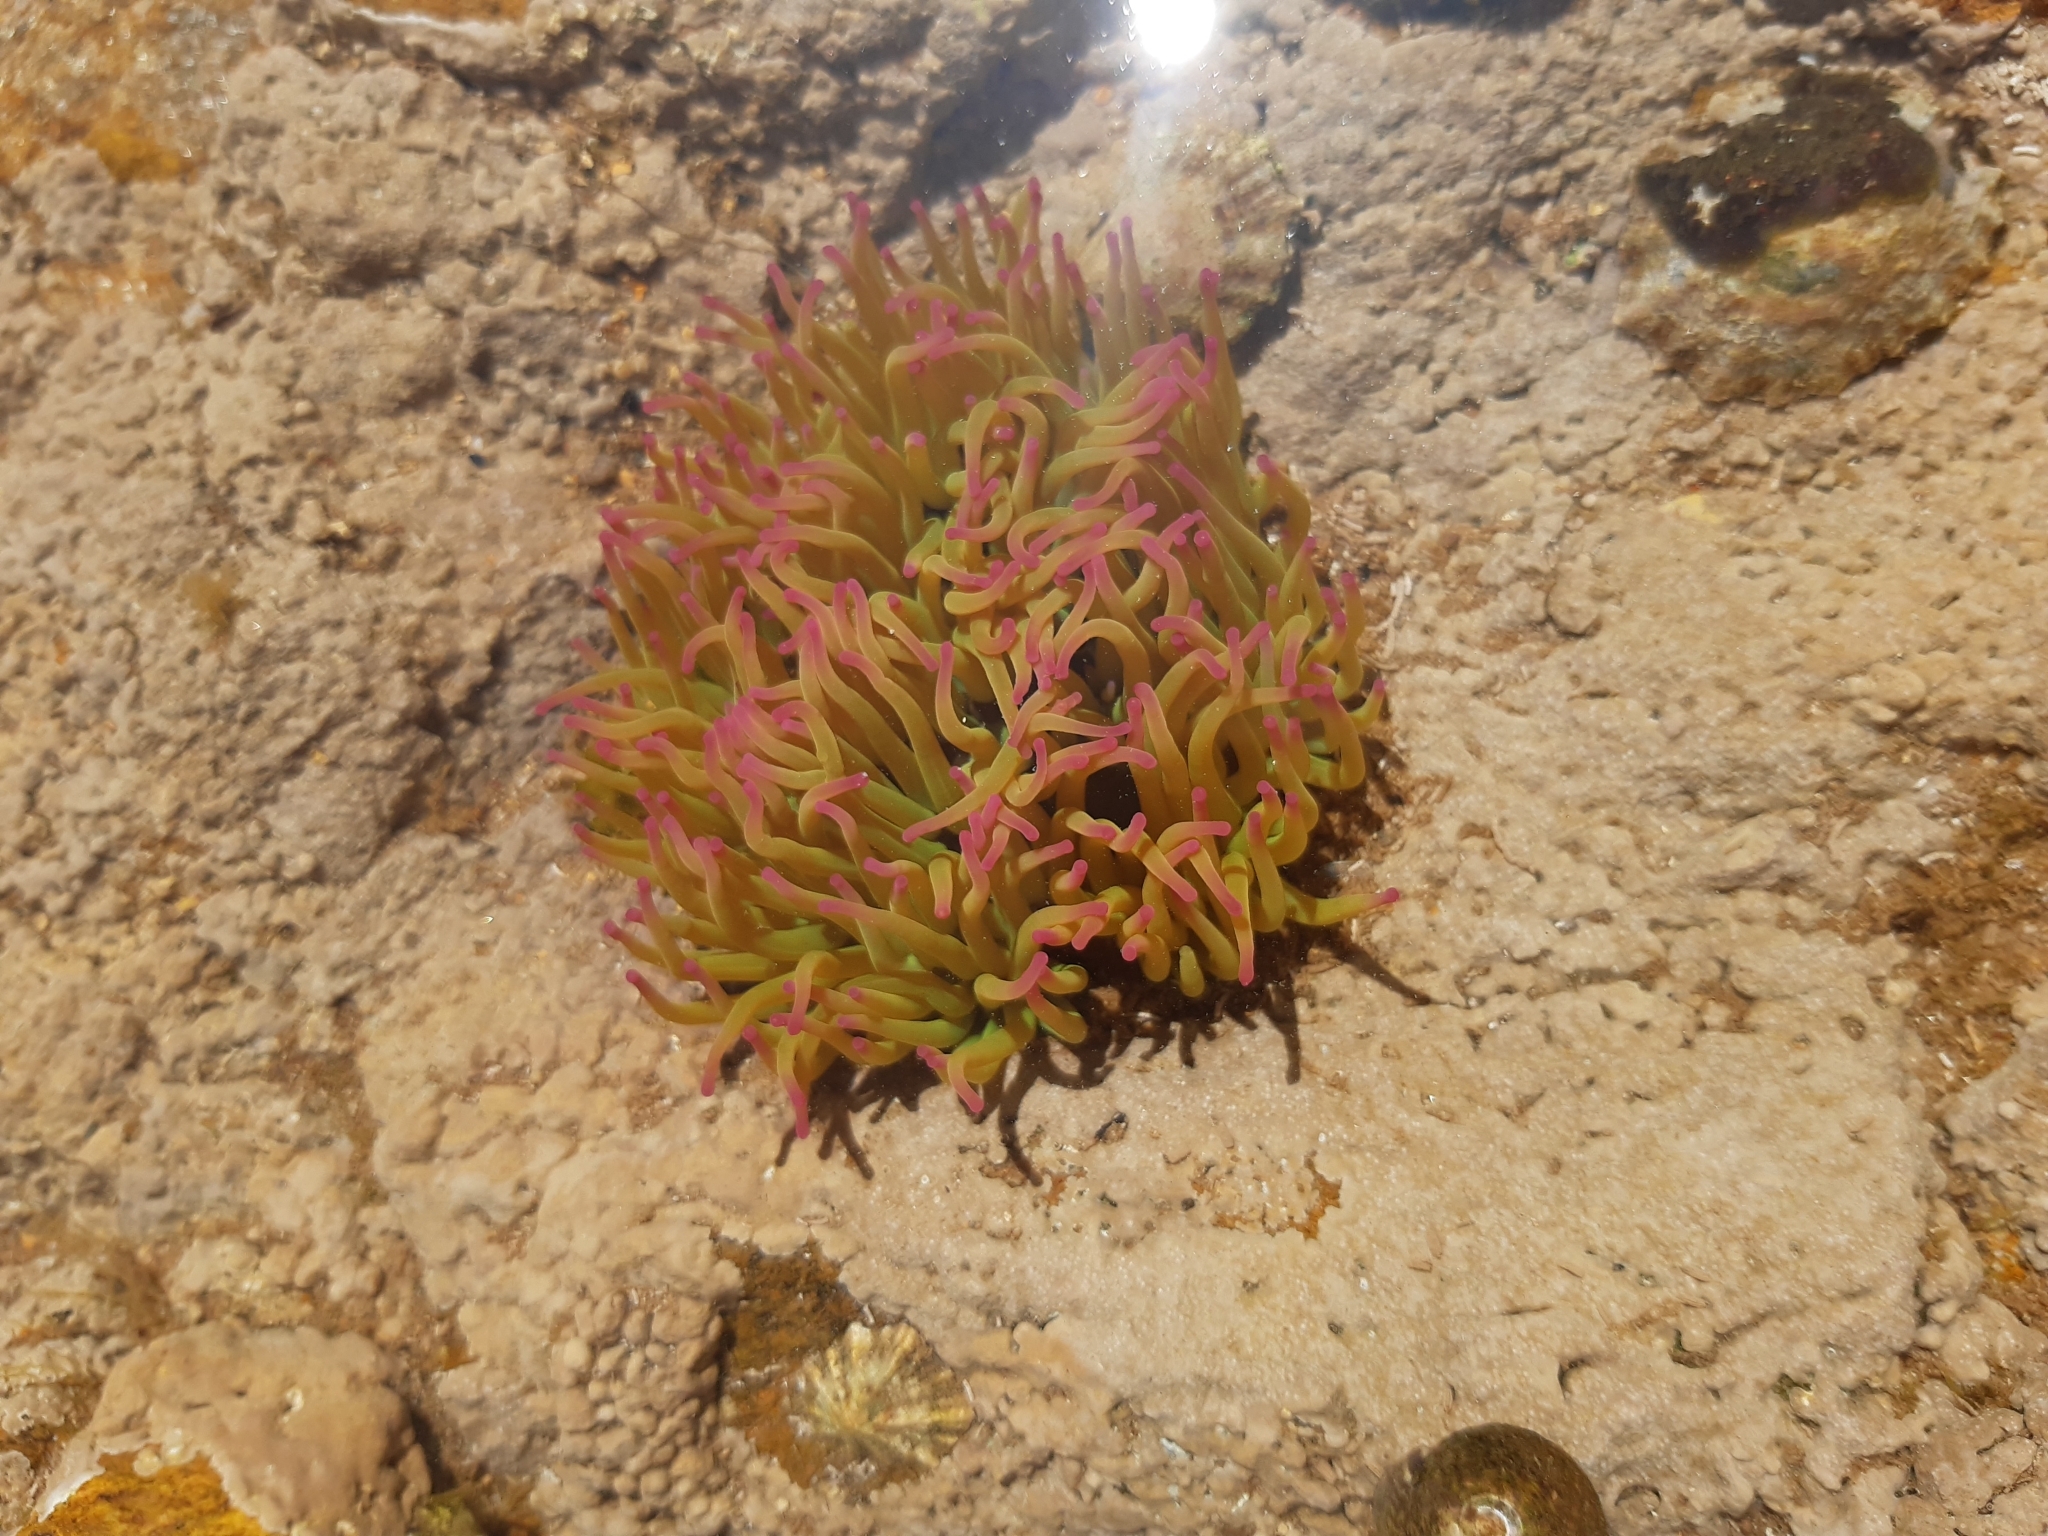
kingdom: Animalia
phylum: Cnidaria
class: Anthozoa
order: Actiniaria
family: Actiniidae
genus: Anemonia
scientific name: Anemonia viridis
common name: Snakelocks anemone
